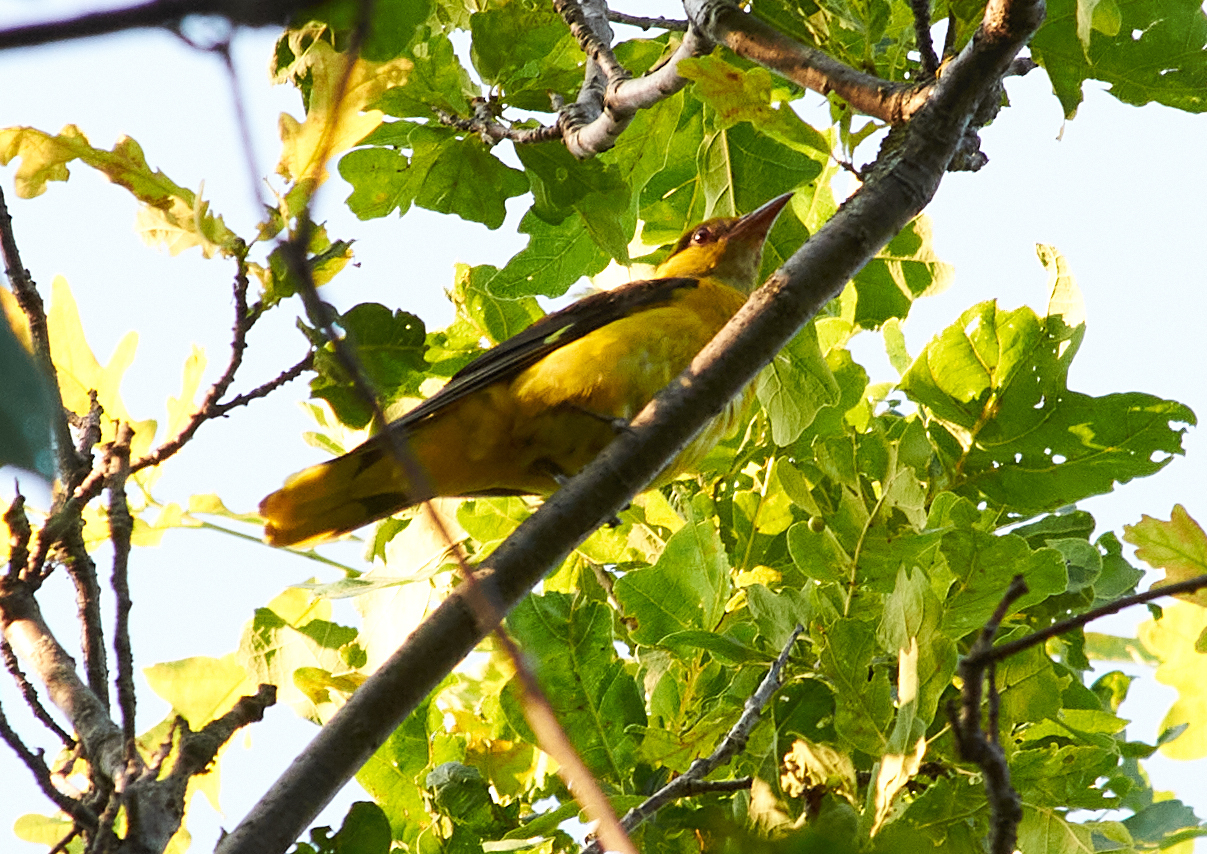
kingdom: Animalia
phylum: Chordata
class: Aves
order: Passeriformes
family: Oriolidae
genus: Oriolus
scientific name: Oriolus oriolus
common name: Eurasian golden oriole
